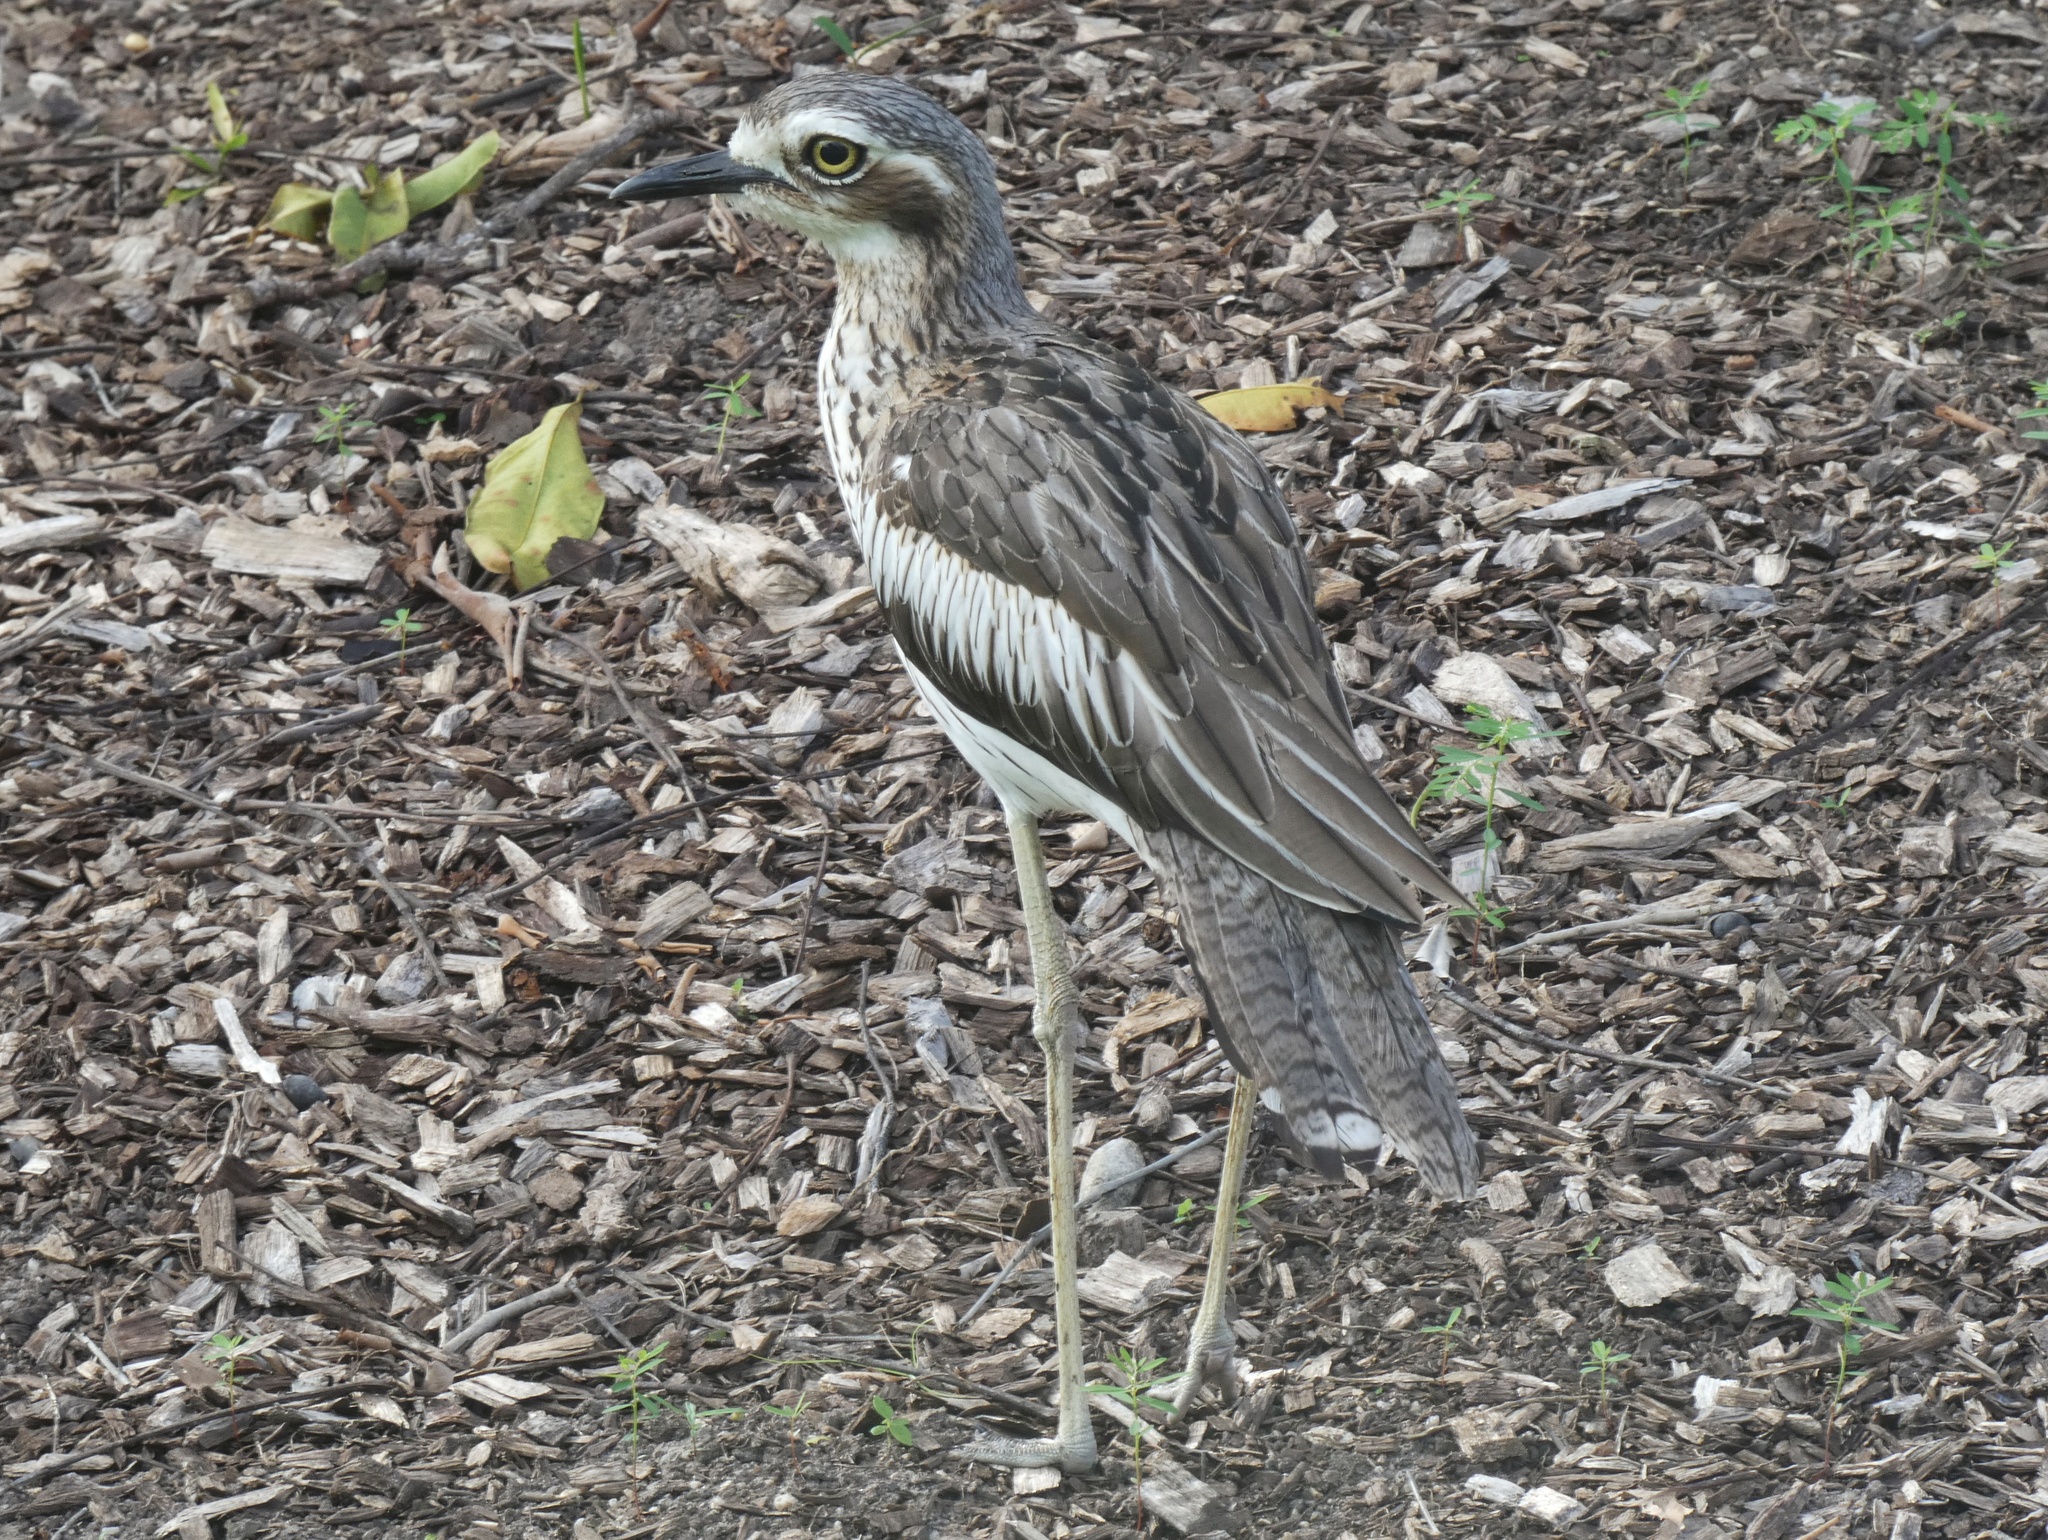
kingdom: Animalia
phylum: Chordata
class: Aves
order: Charadriiformes
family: Burhinidae
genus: Burhinus
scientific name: Burhinus grallarius
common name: Bush stone-curlew
